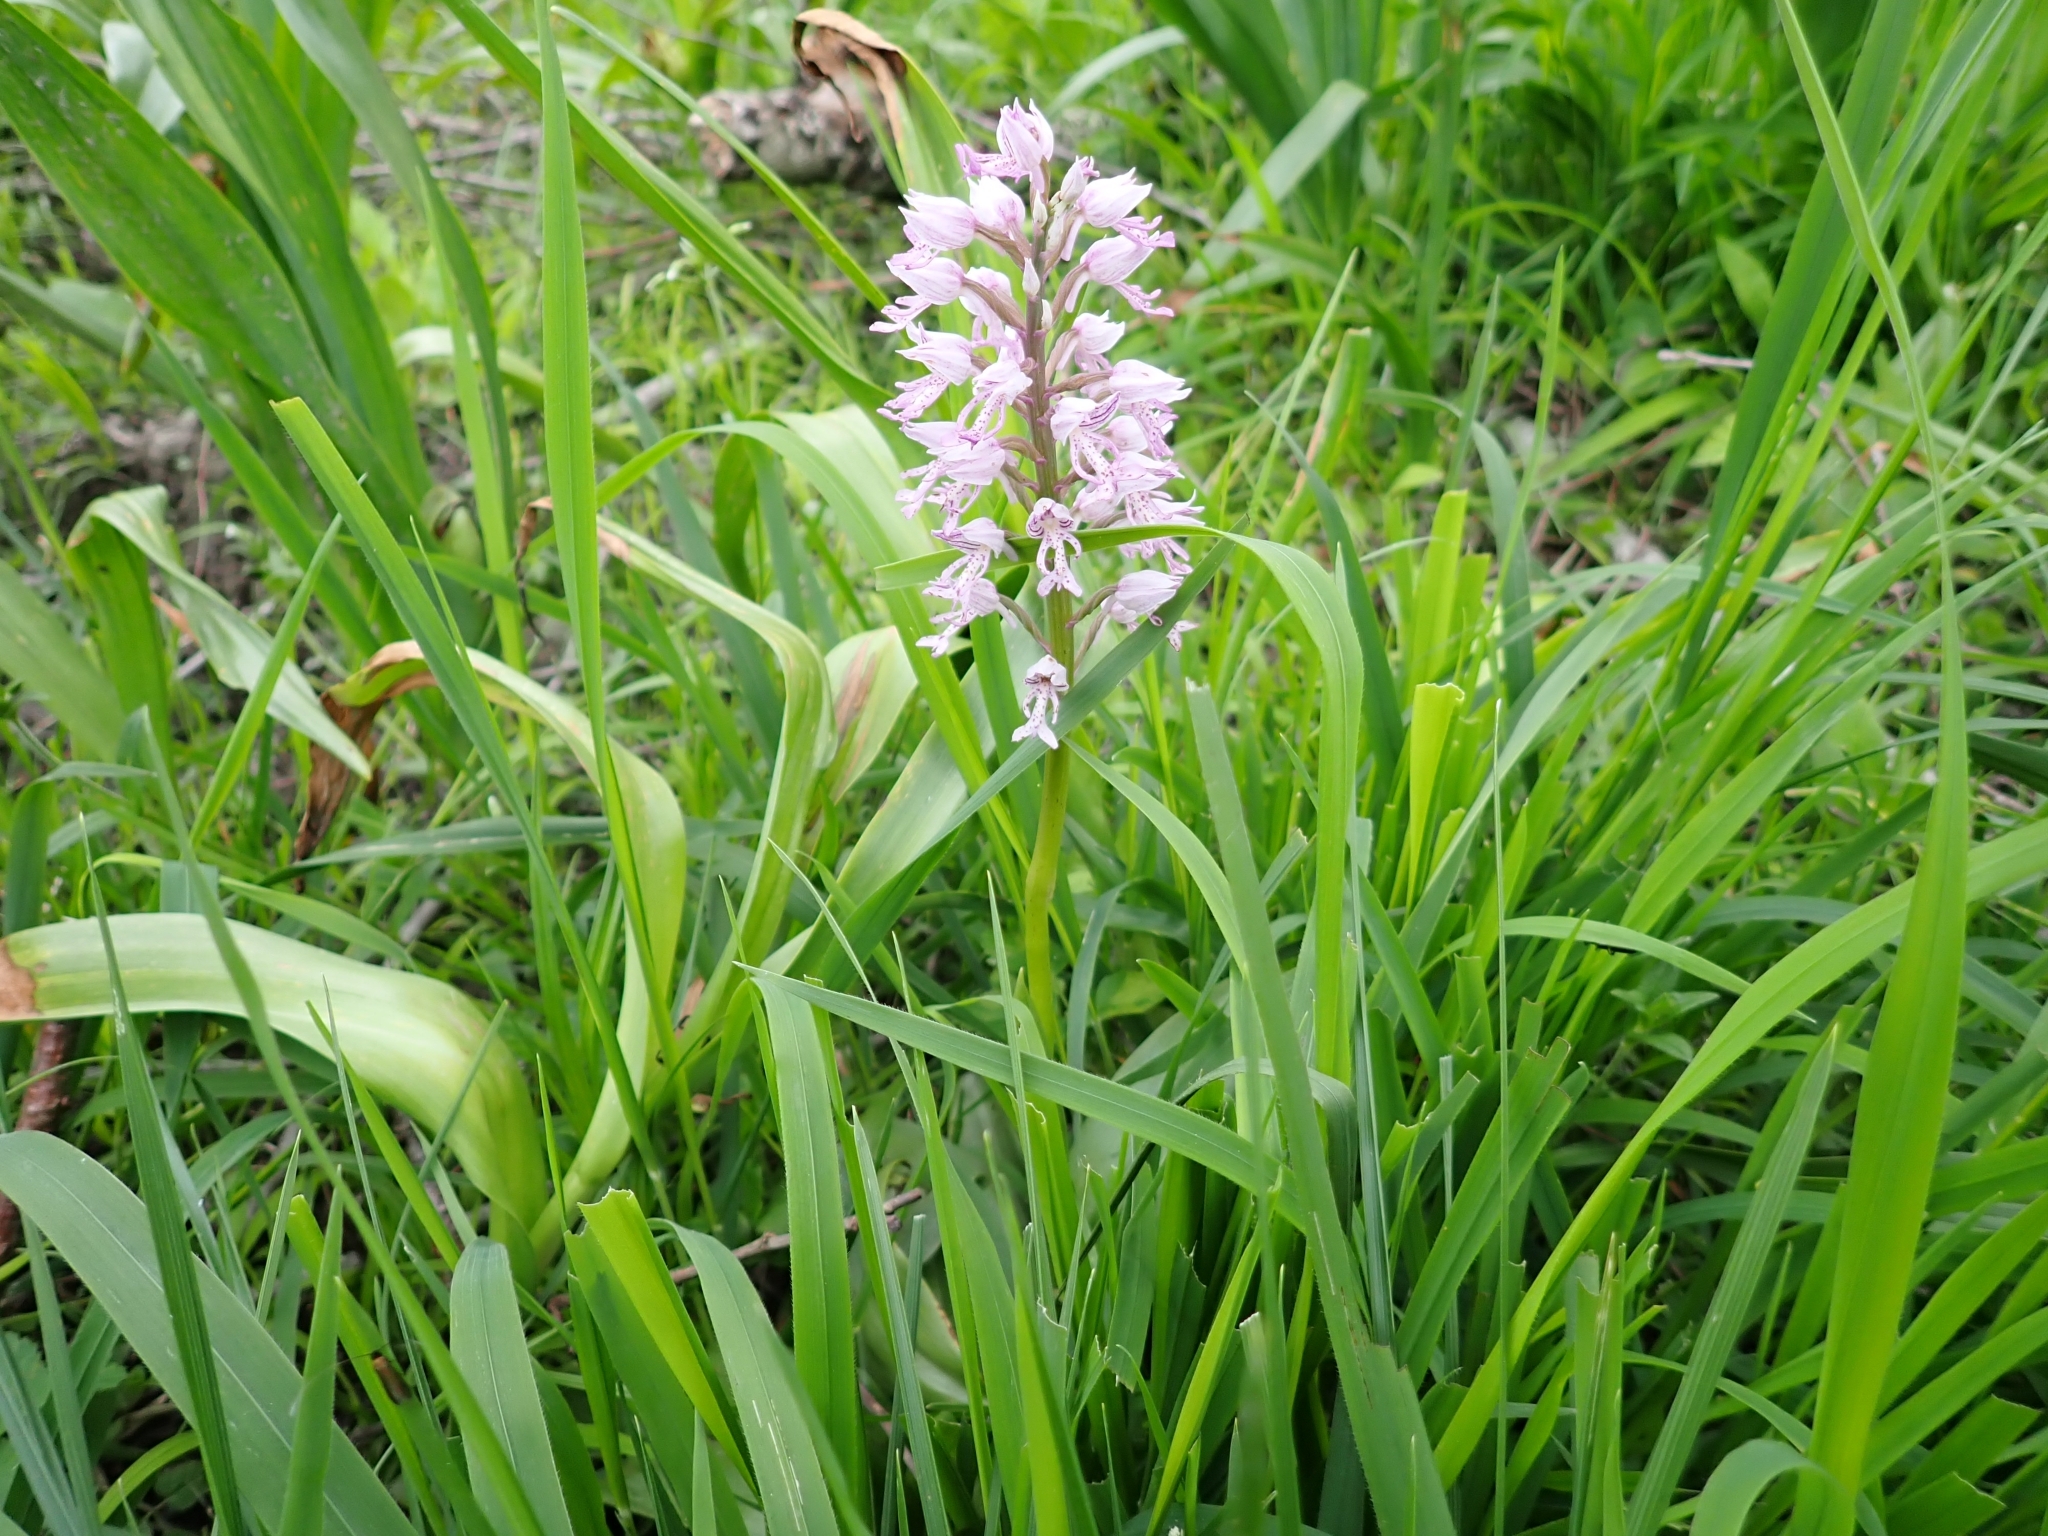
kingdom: Plantae
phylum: Tracheophyta
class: Liliopsida
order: Asparagales
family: Orchidaceae
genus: Orchis
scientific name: Orchis militaris
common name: Military orchid
